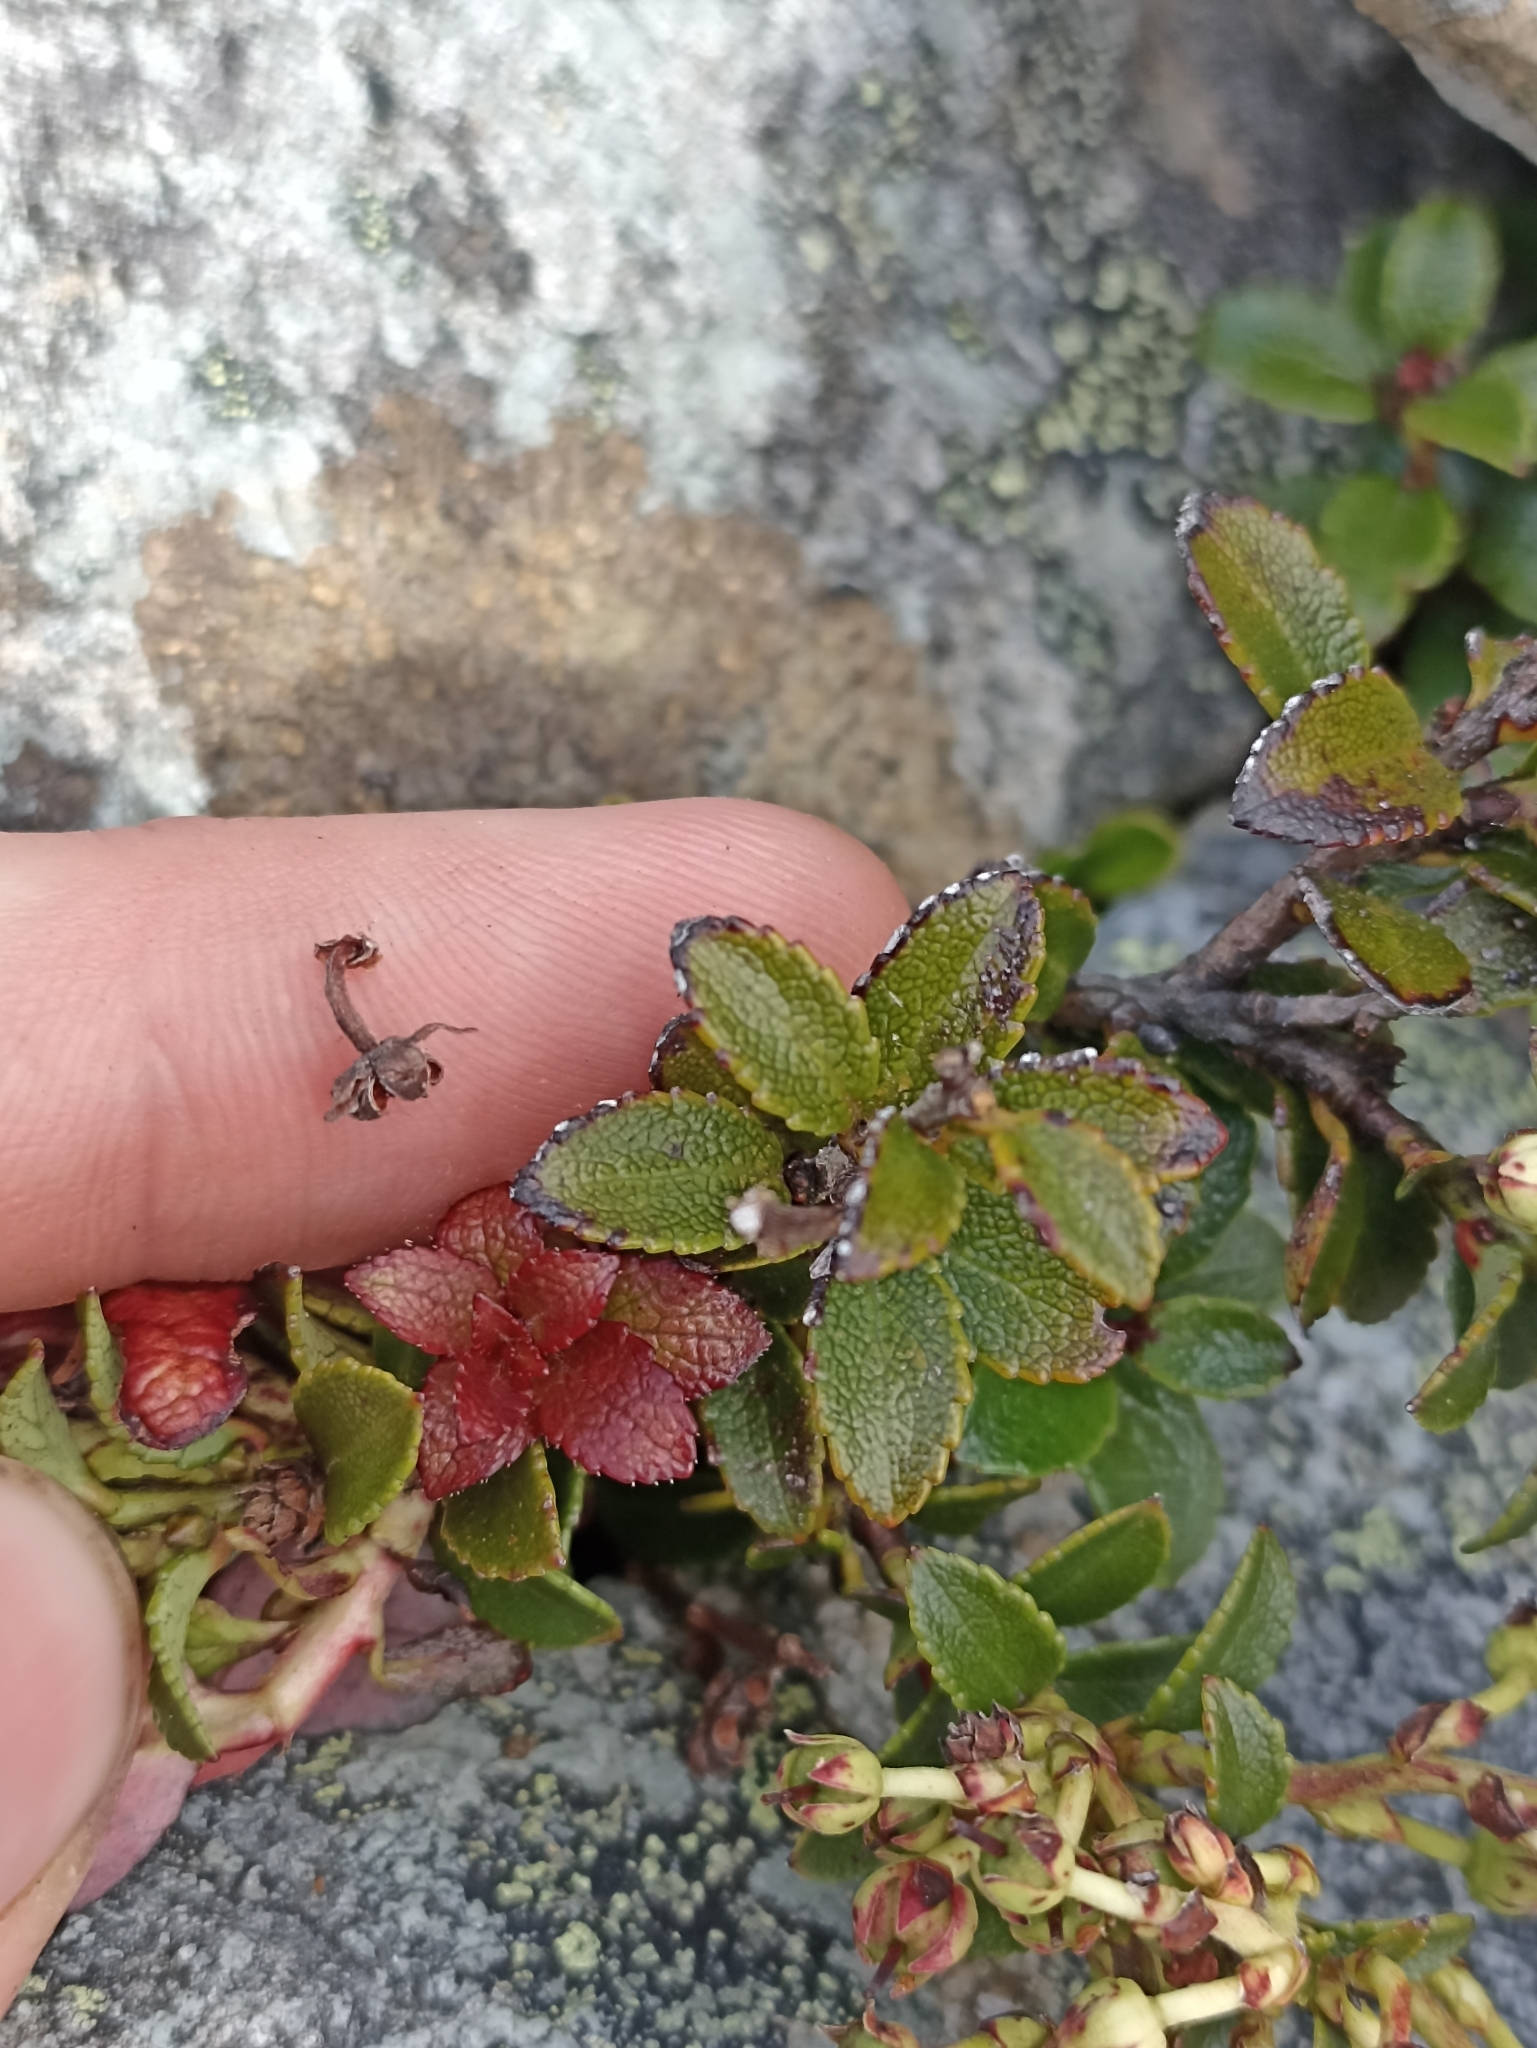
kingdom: Plantae
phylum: Tracheophyta
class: Magnoliopsida
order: Ericales
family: Ericaceae
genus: Gaultheria
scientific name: Gaultheria crassa
